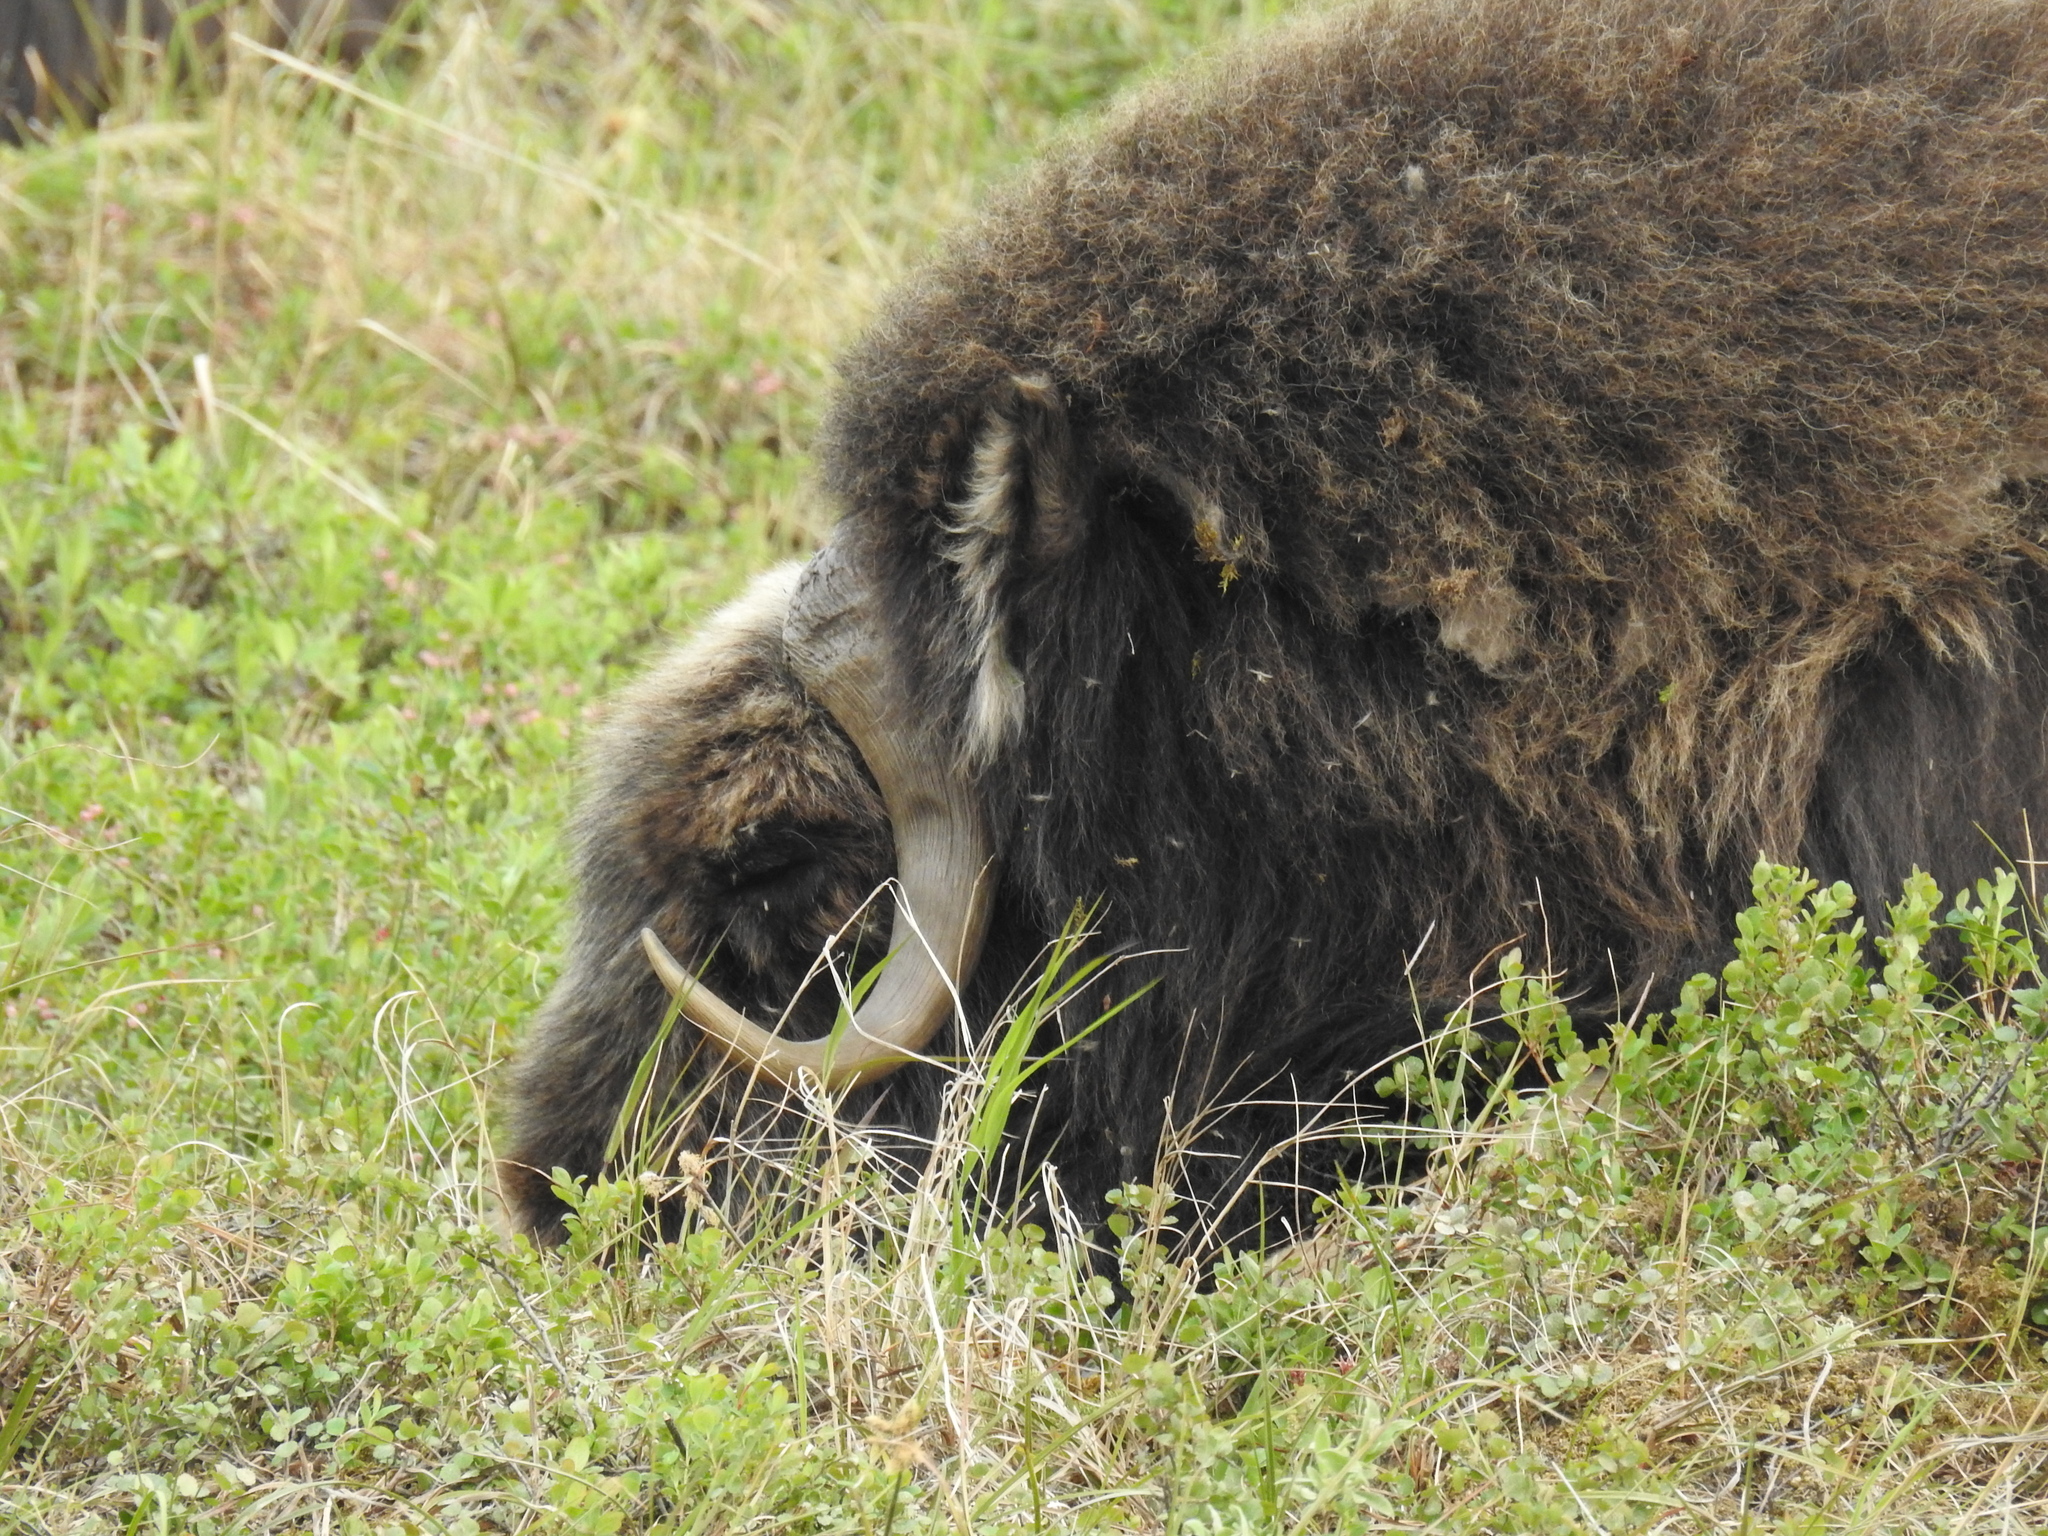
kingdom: Animalia
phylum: Chordata
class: Mammalia
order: Artiodactyla
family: Bovidae
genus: Ovibos
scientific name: Ovibos moschatus
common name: Muskox
